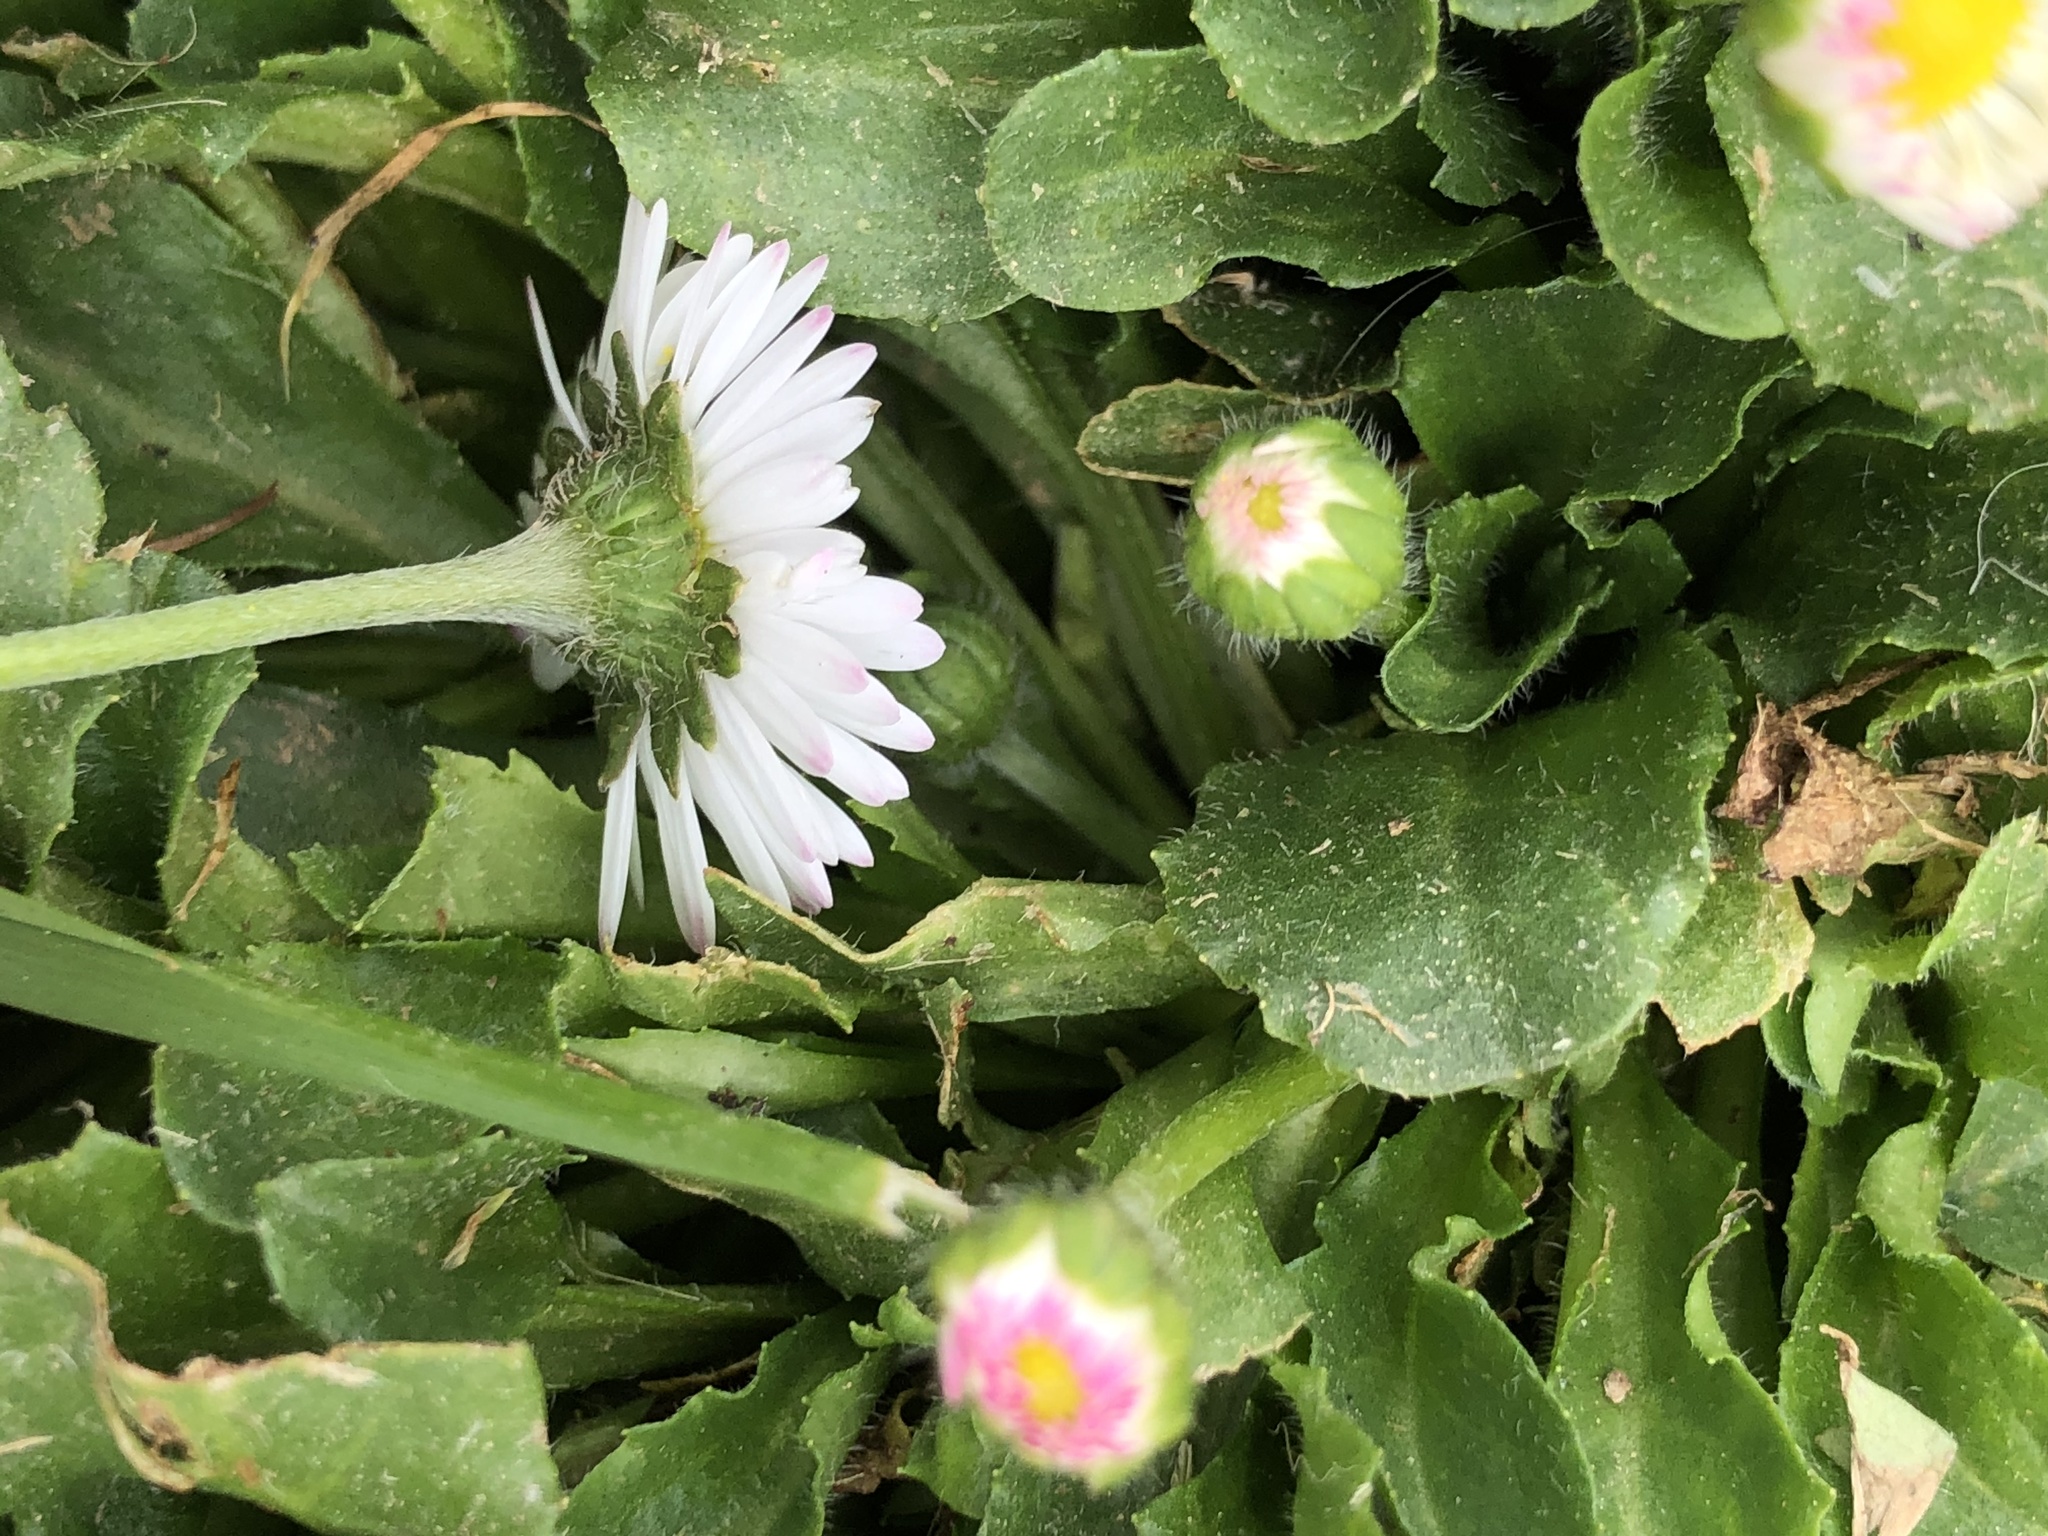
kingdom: Plantae
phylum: Tracheophyta
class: Magnoliopsida
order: Asterales
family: Asteraceae
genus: Bellis
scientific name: Bellis perennis
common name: Lawndaisy
